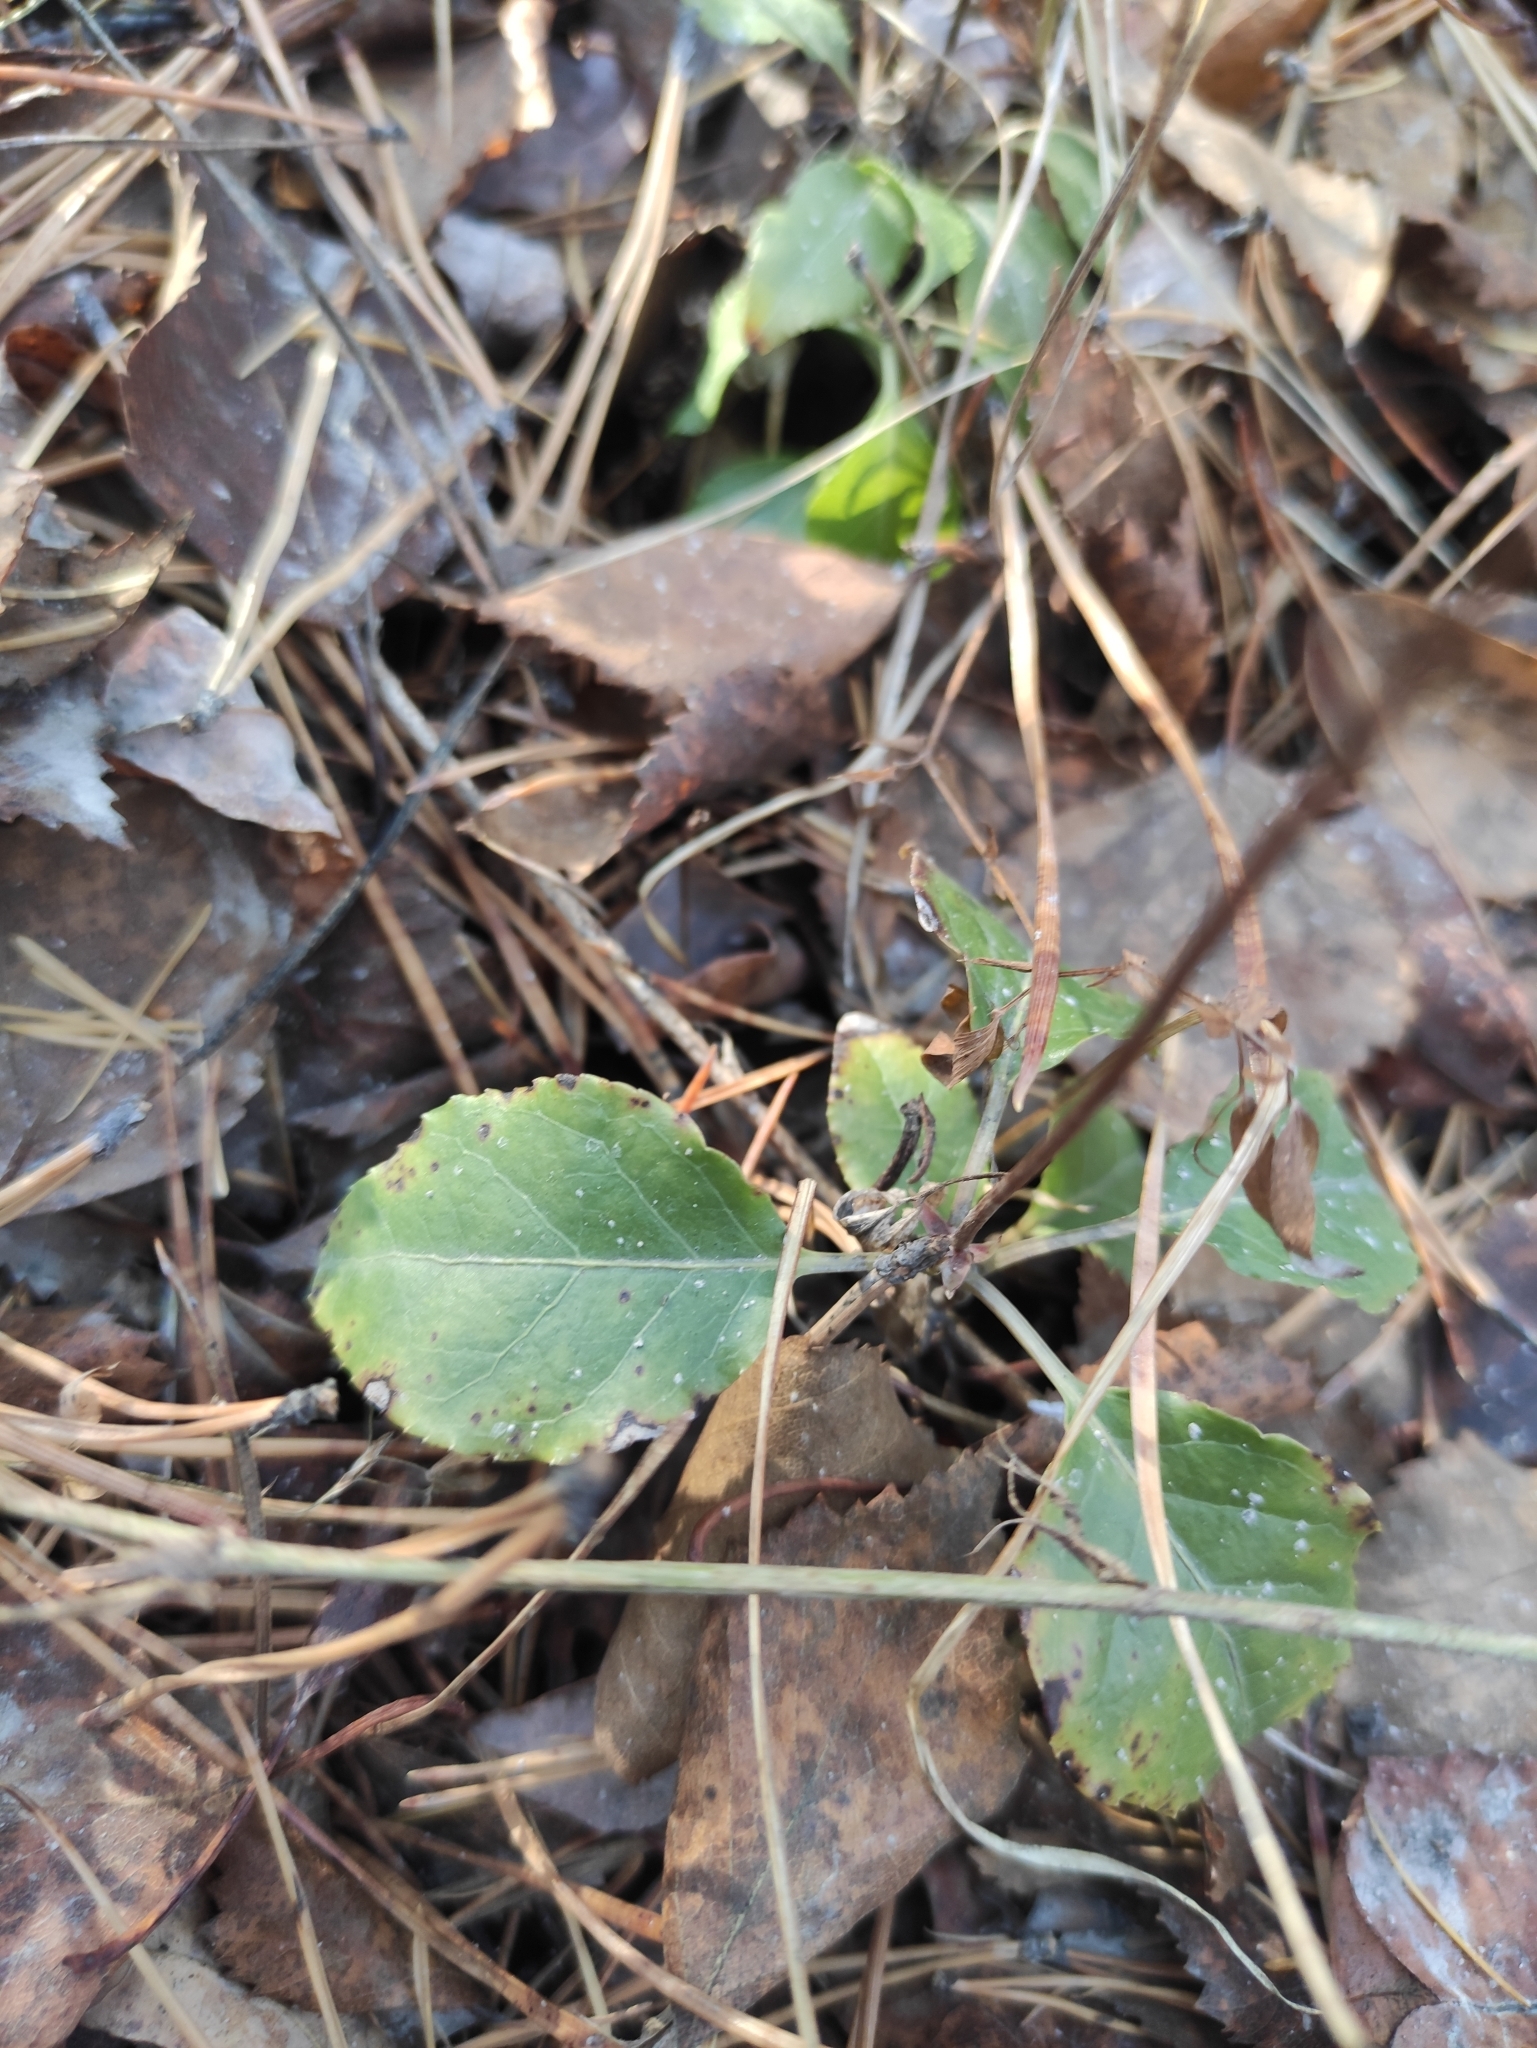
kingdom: Plantae
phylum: Tracheophyta
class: Magnoliopsida
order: Ericales
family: Ericaceae
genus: Orthilia
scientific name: Orthilia secunda
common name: One-sided orthilia
